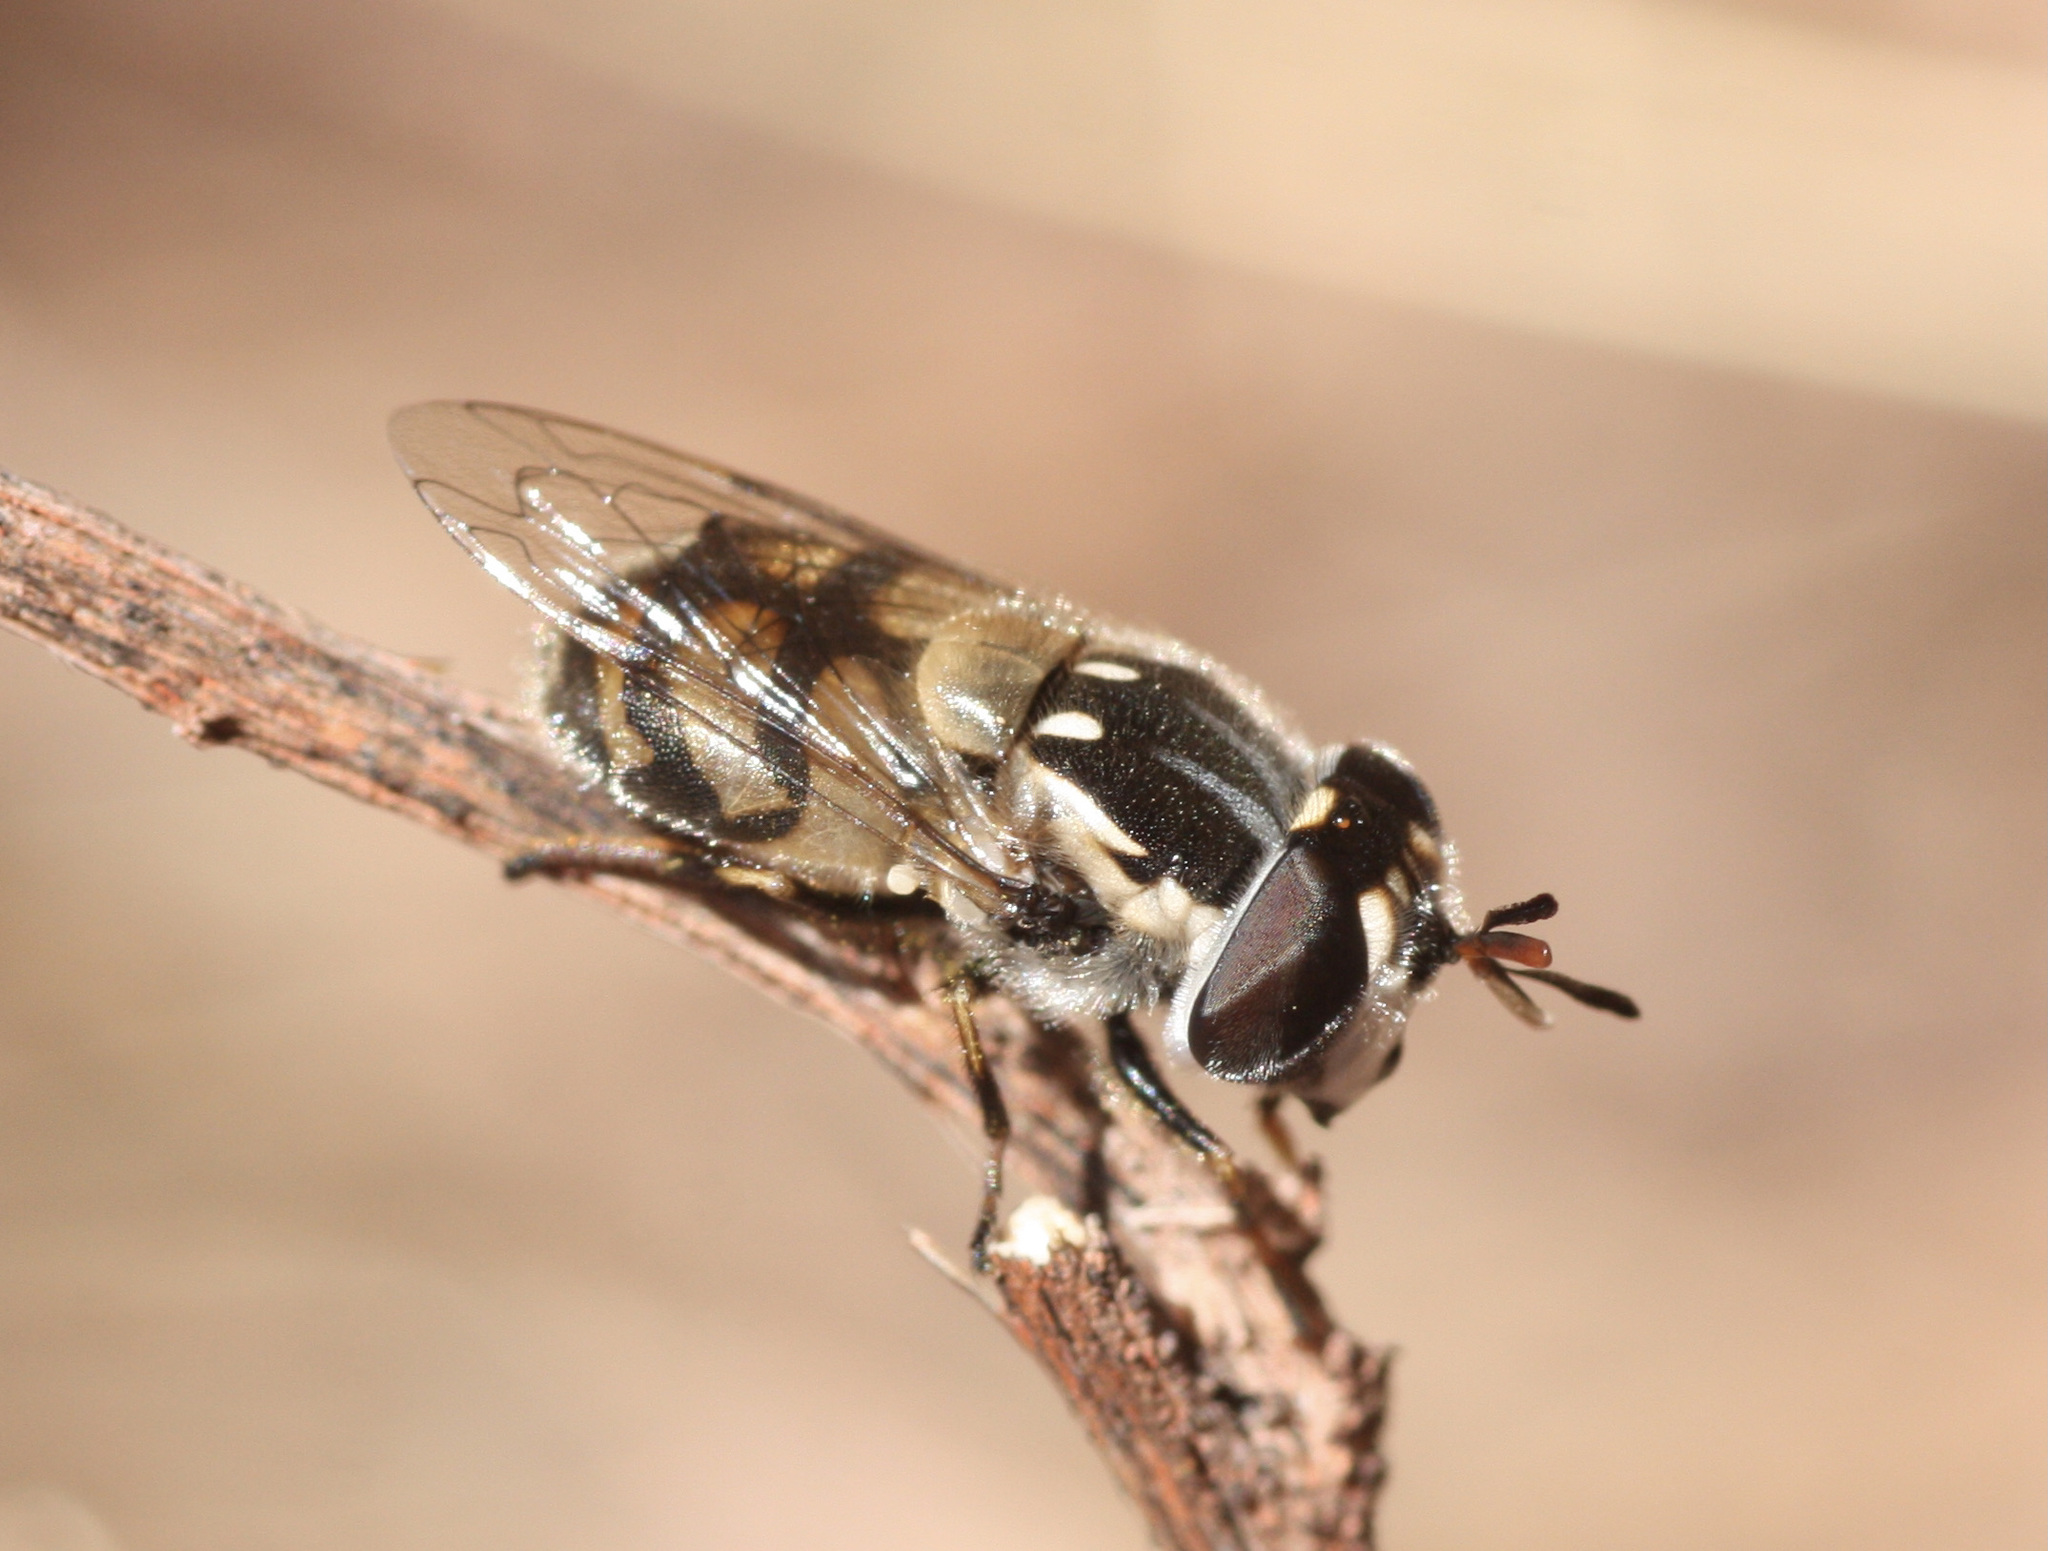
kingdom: Animalia
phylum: Arthropoda
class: Insecta
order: Diptera
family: Syrphidae
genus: Copestylum
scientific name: Copestylum marginatum
